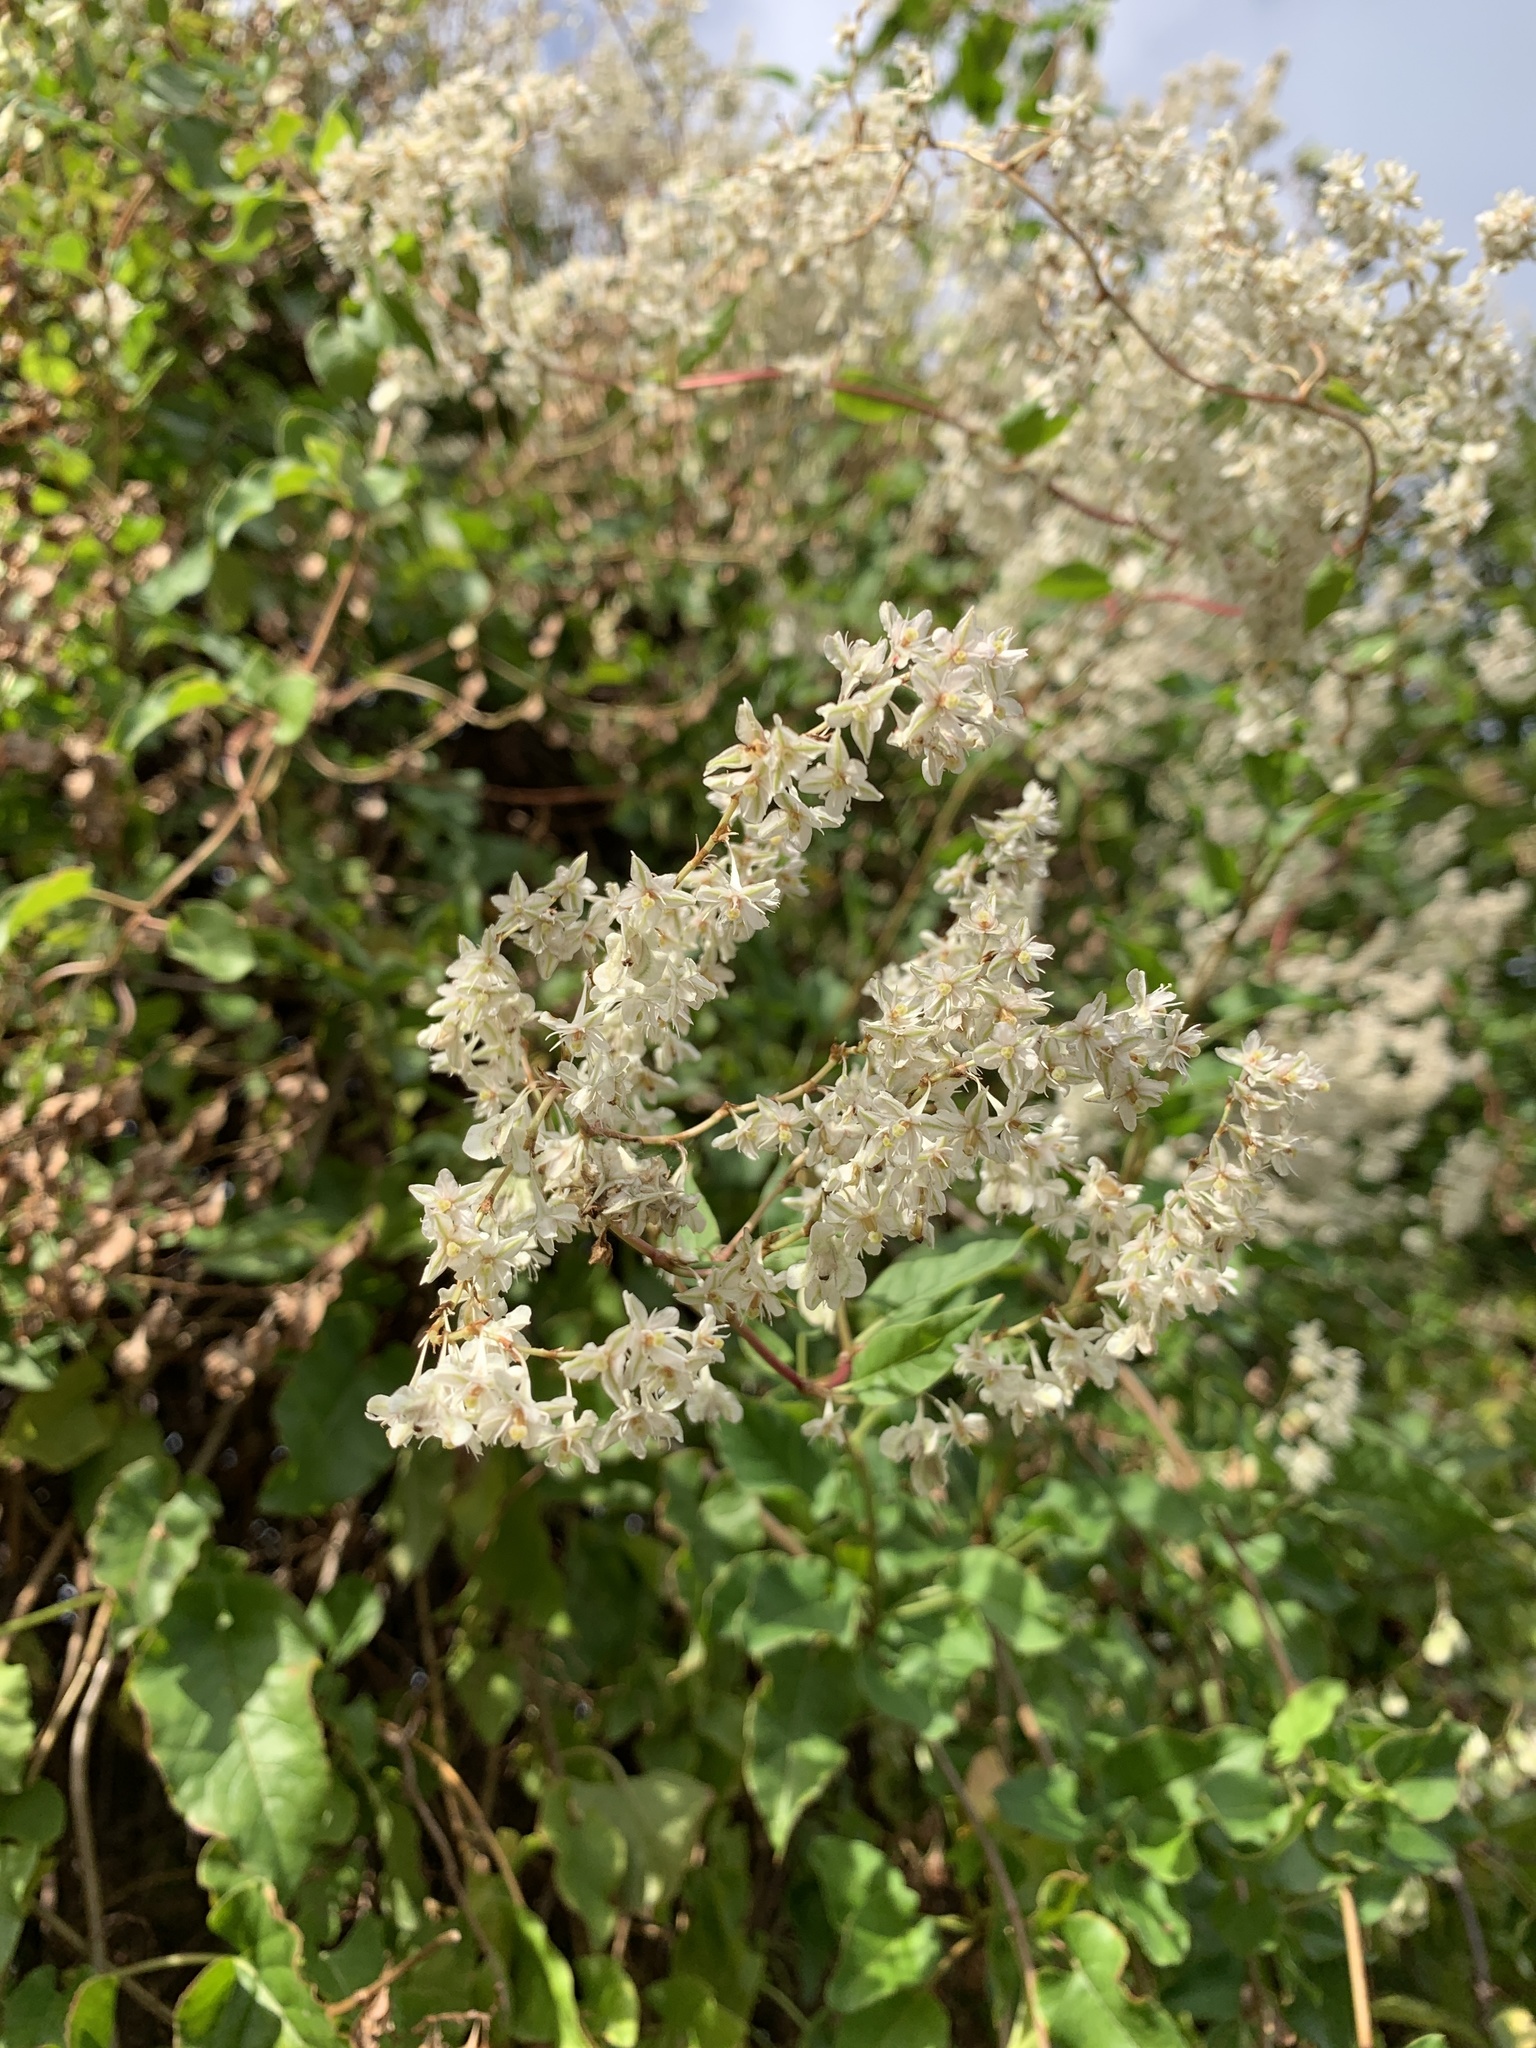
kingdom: Plantae
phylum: Tracheophyta
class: Magnoliopsida
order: Caryophyllales
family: Polygonaceae
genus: Fallopia
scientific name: Fallopia baldschuanica
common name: Russian-vine
